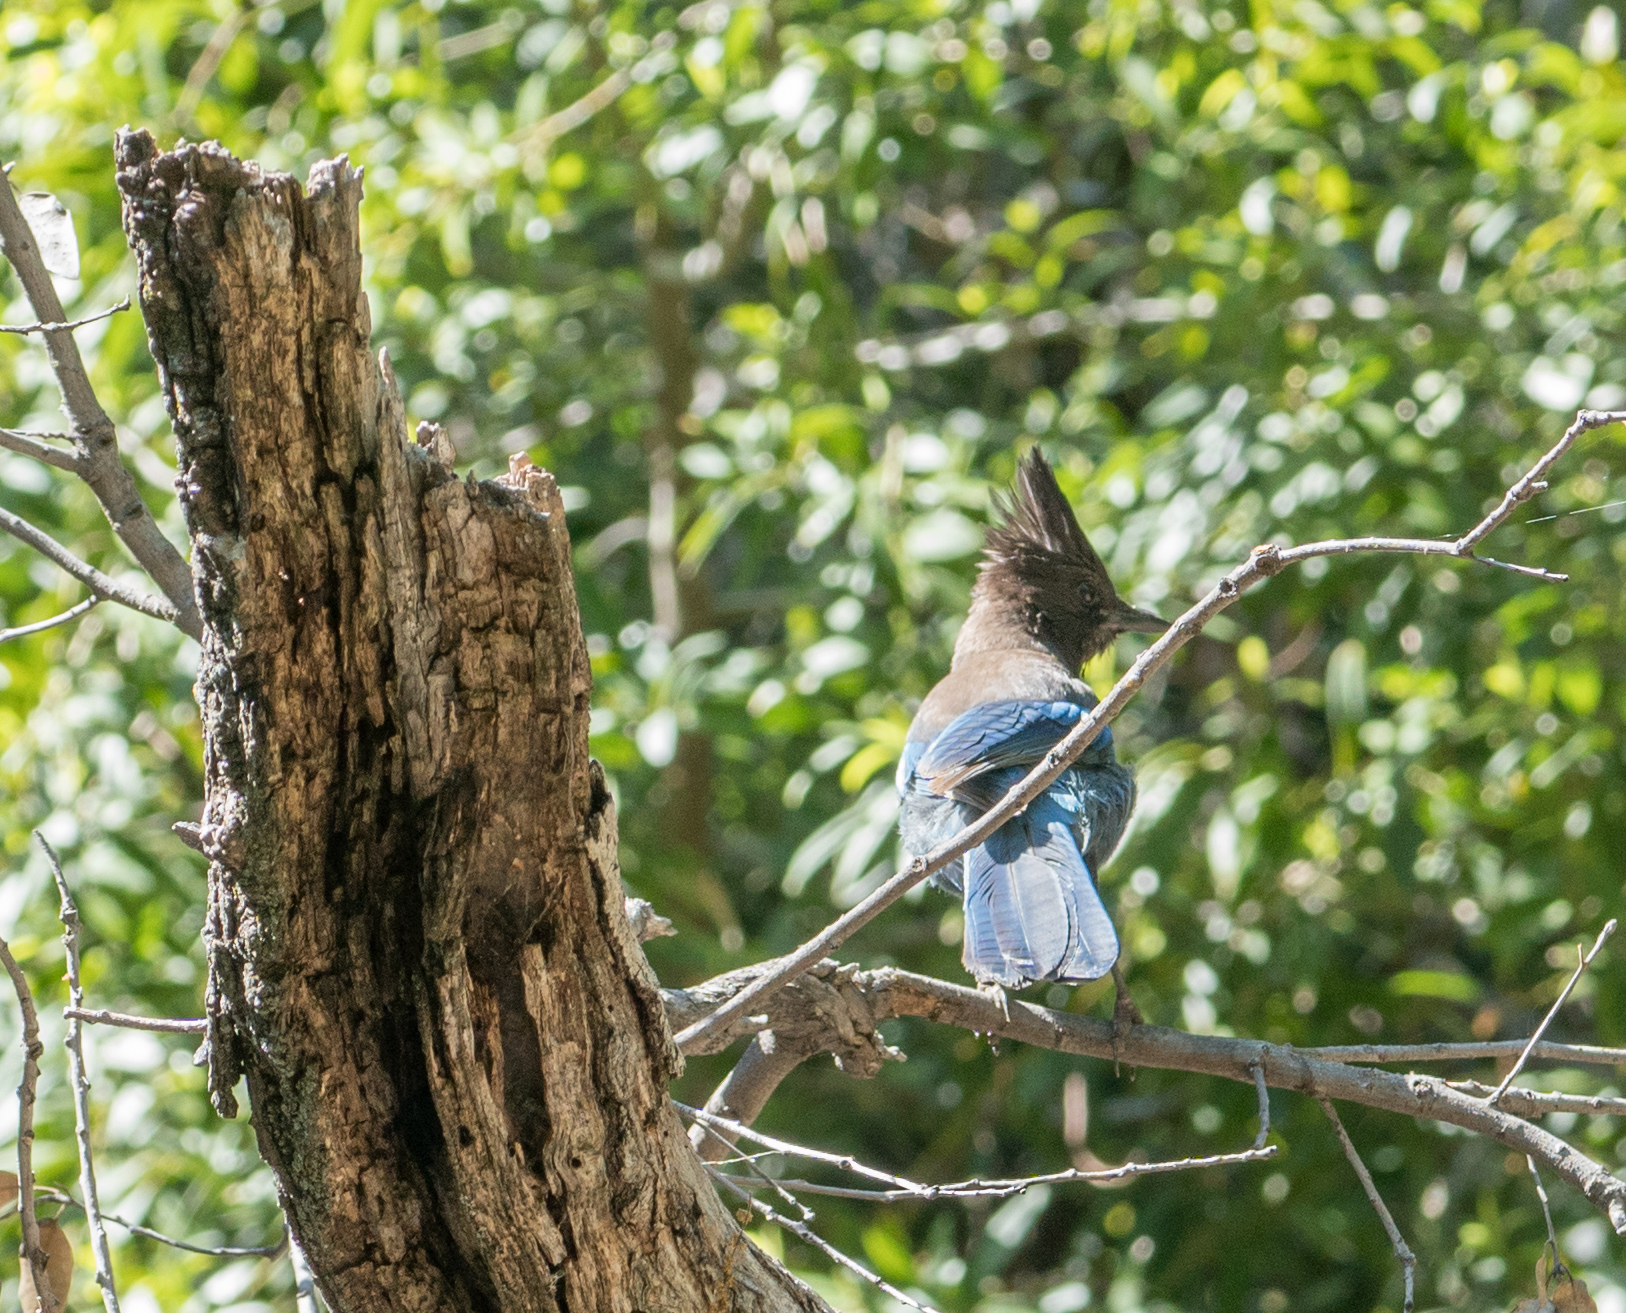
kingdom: Animalia
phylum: Chordata
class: Aves
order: Passeriformes
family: Corvidae
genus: Cyanocitta
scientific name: Cyanocitta stelleri
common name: Steller's jay
